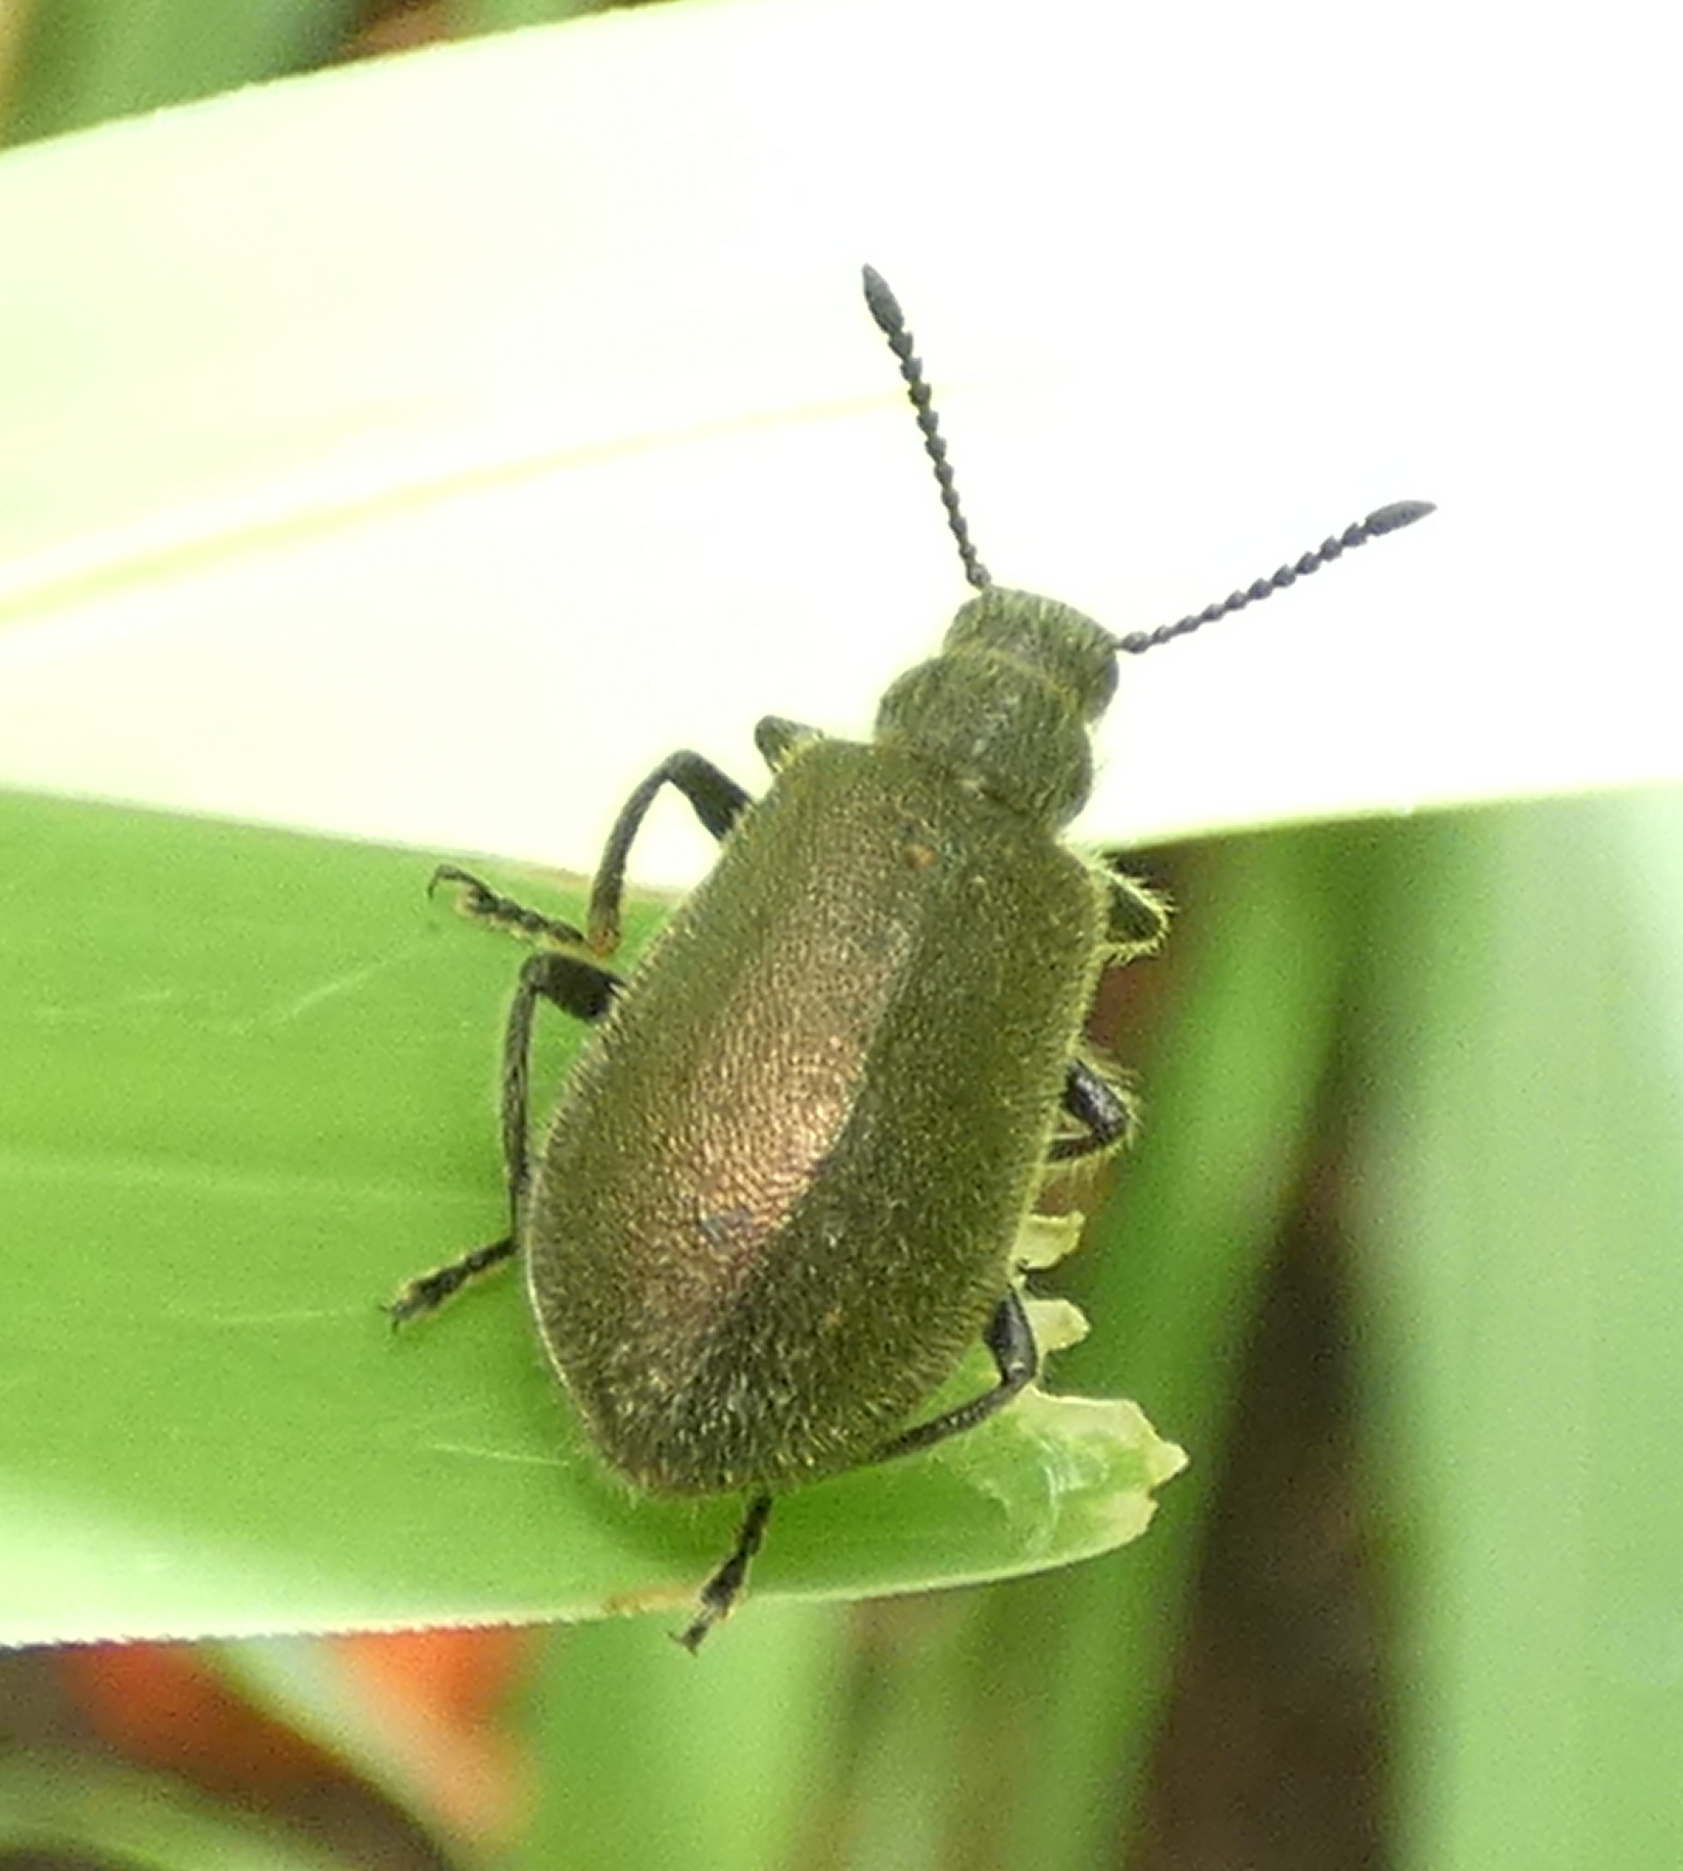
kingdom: Animalia
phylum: Arthropoda
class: Insecta
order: Coleoptera
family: Tenebrionidae
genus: Lagria
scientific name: Lagria villosa
